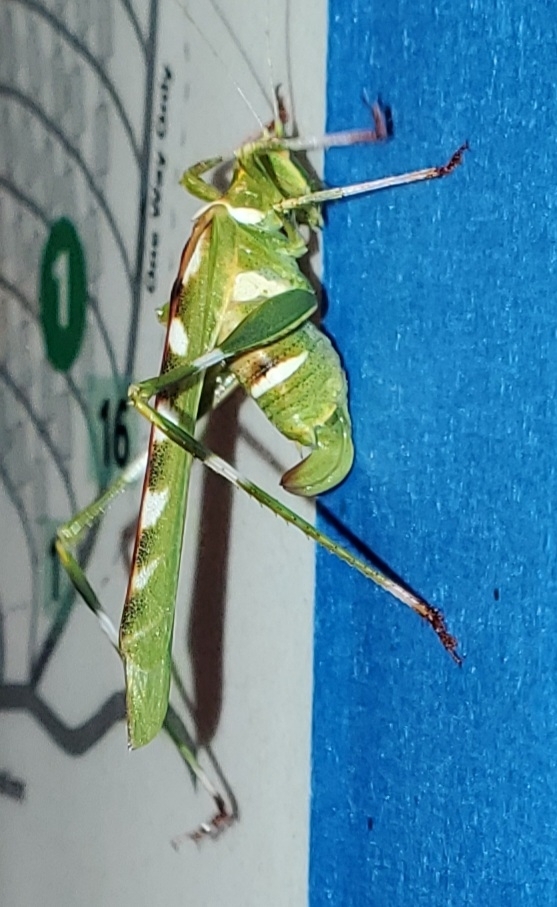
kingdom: Animalia
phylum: Arthropoda
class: Insecta
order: Orthoptera
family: Tettigoniidae
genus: Insara
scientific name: Insara covilleae
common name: Creosote bush katydid
